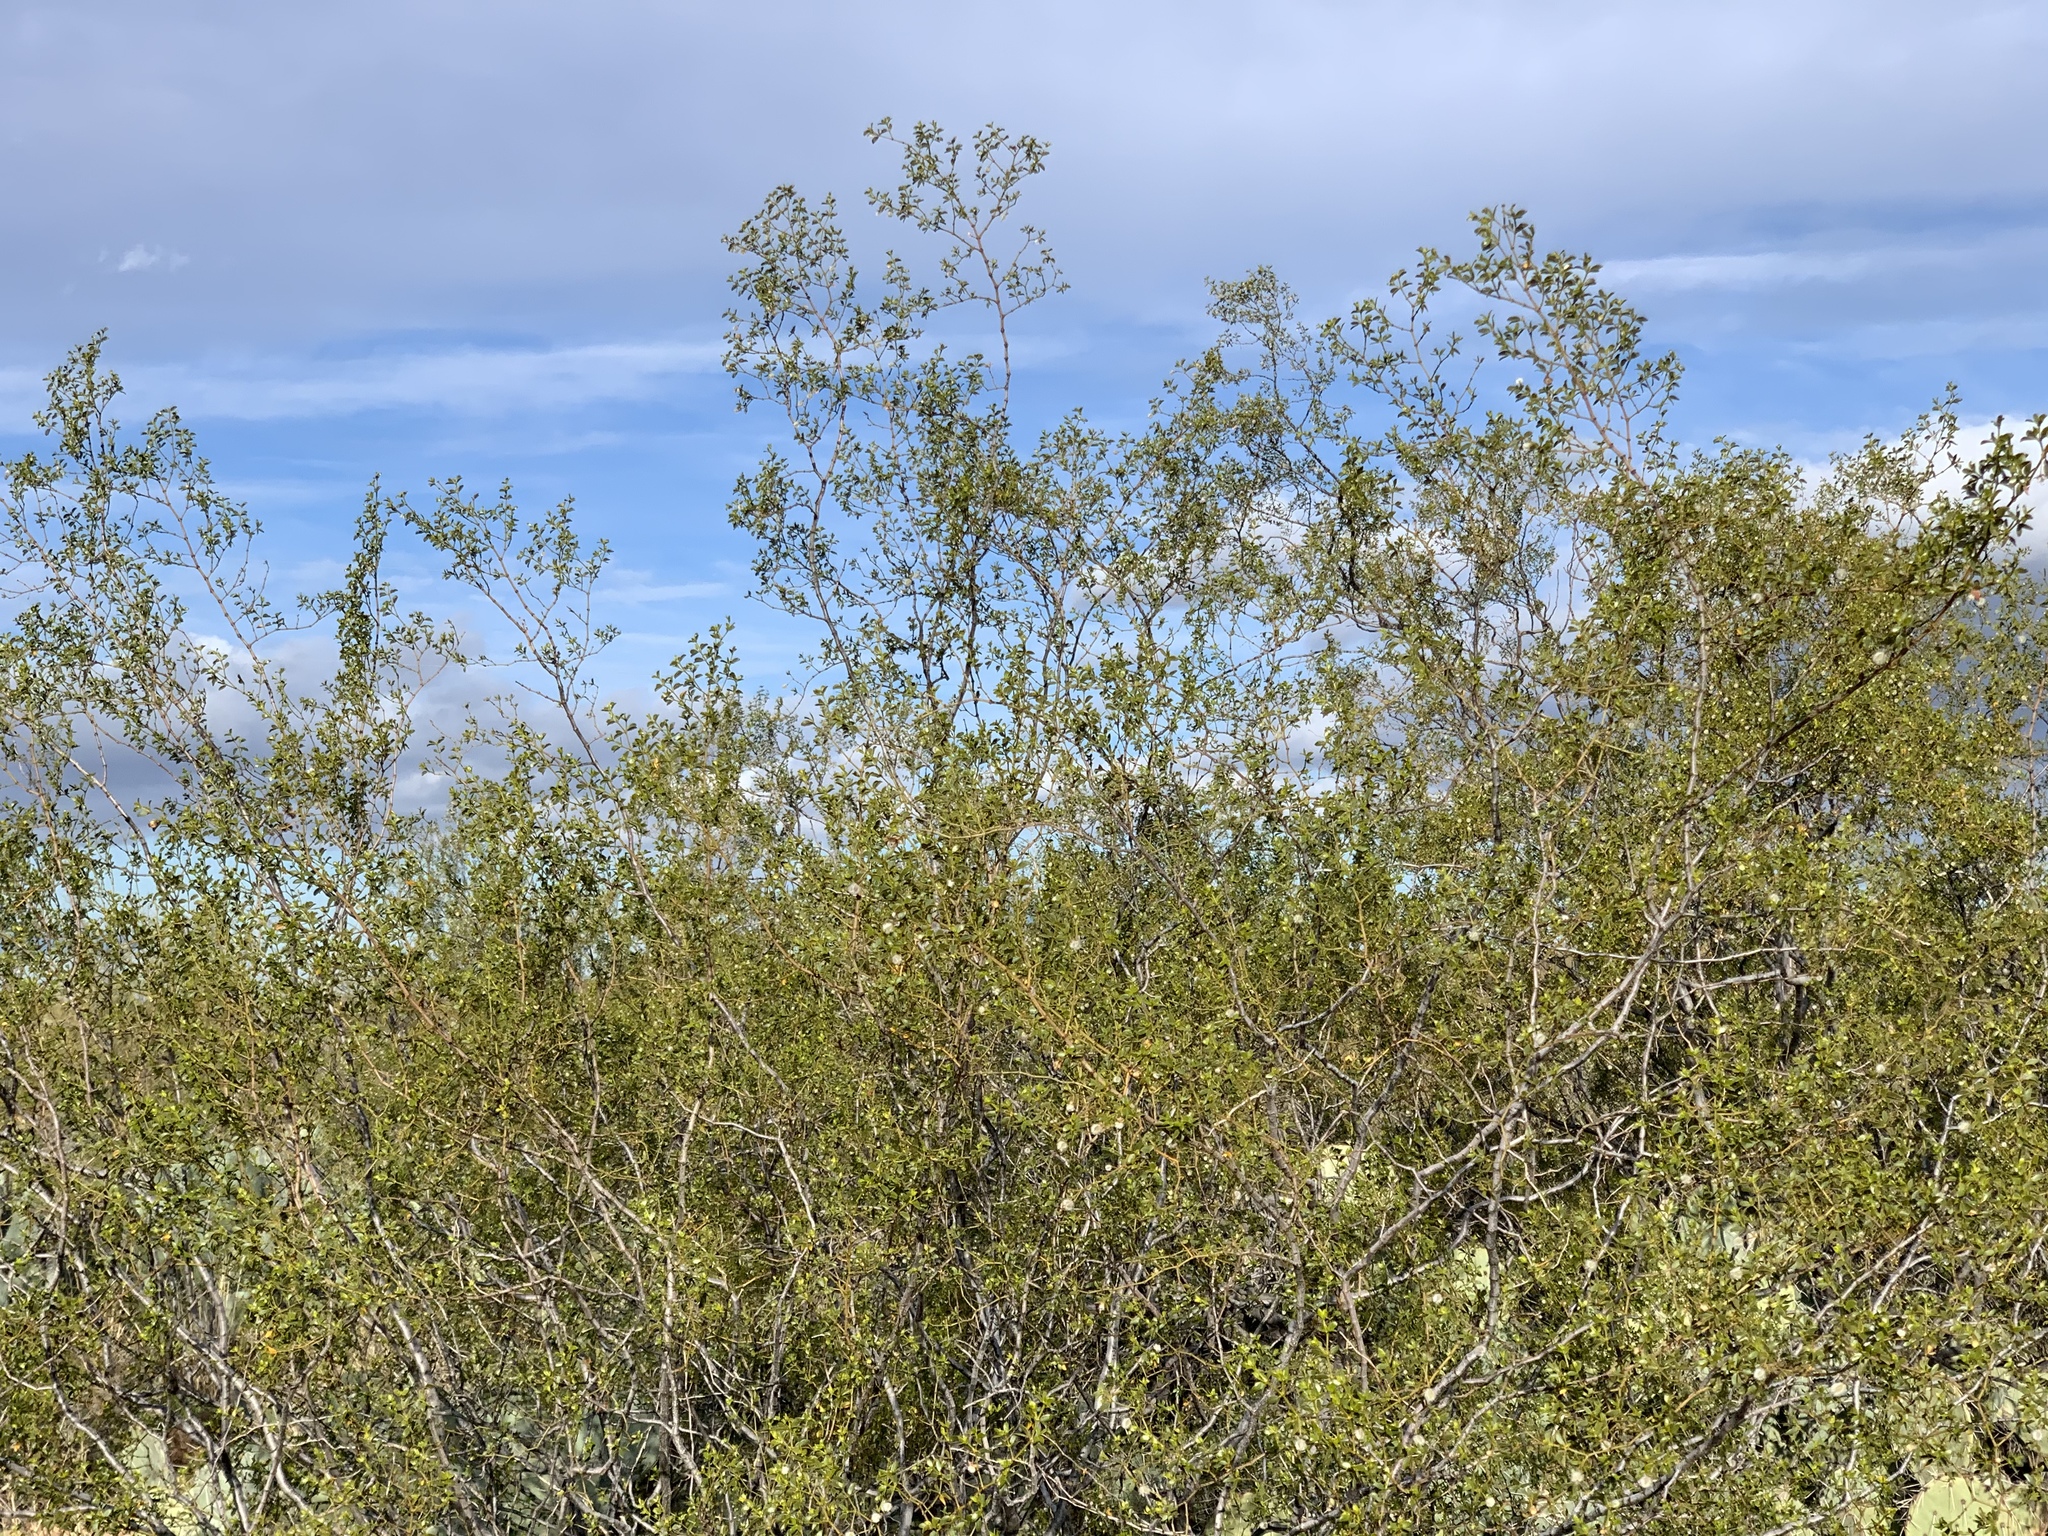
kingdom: Plantae
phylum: Tracheophyta
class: Magnoliopsida
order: Zygophyllales
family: Zygophyllaceae
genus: Larrea
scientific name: Larrea tridentata
